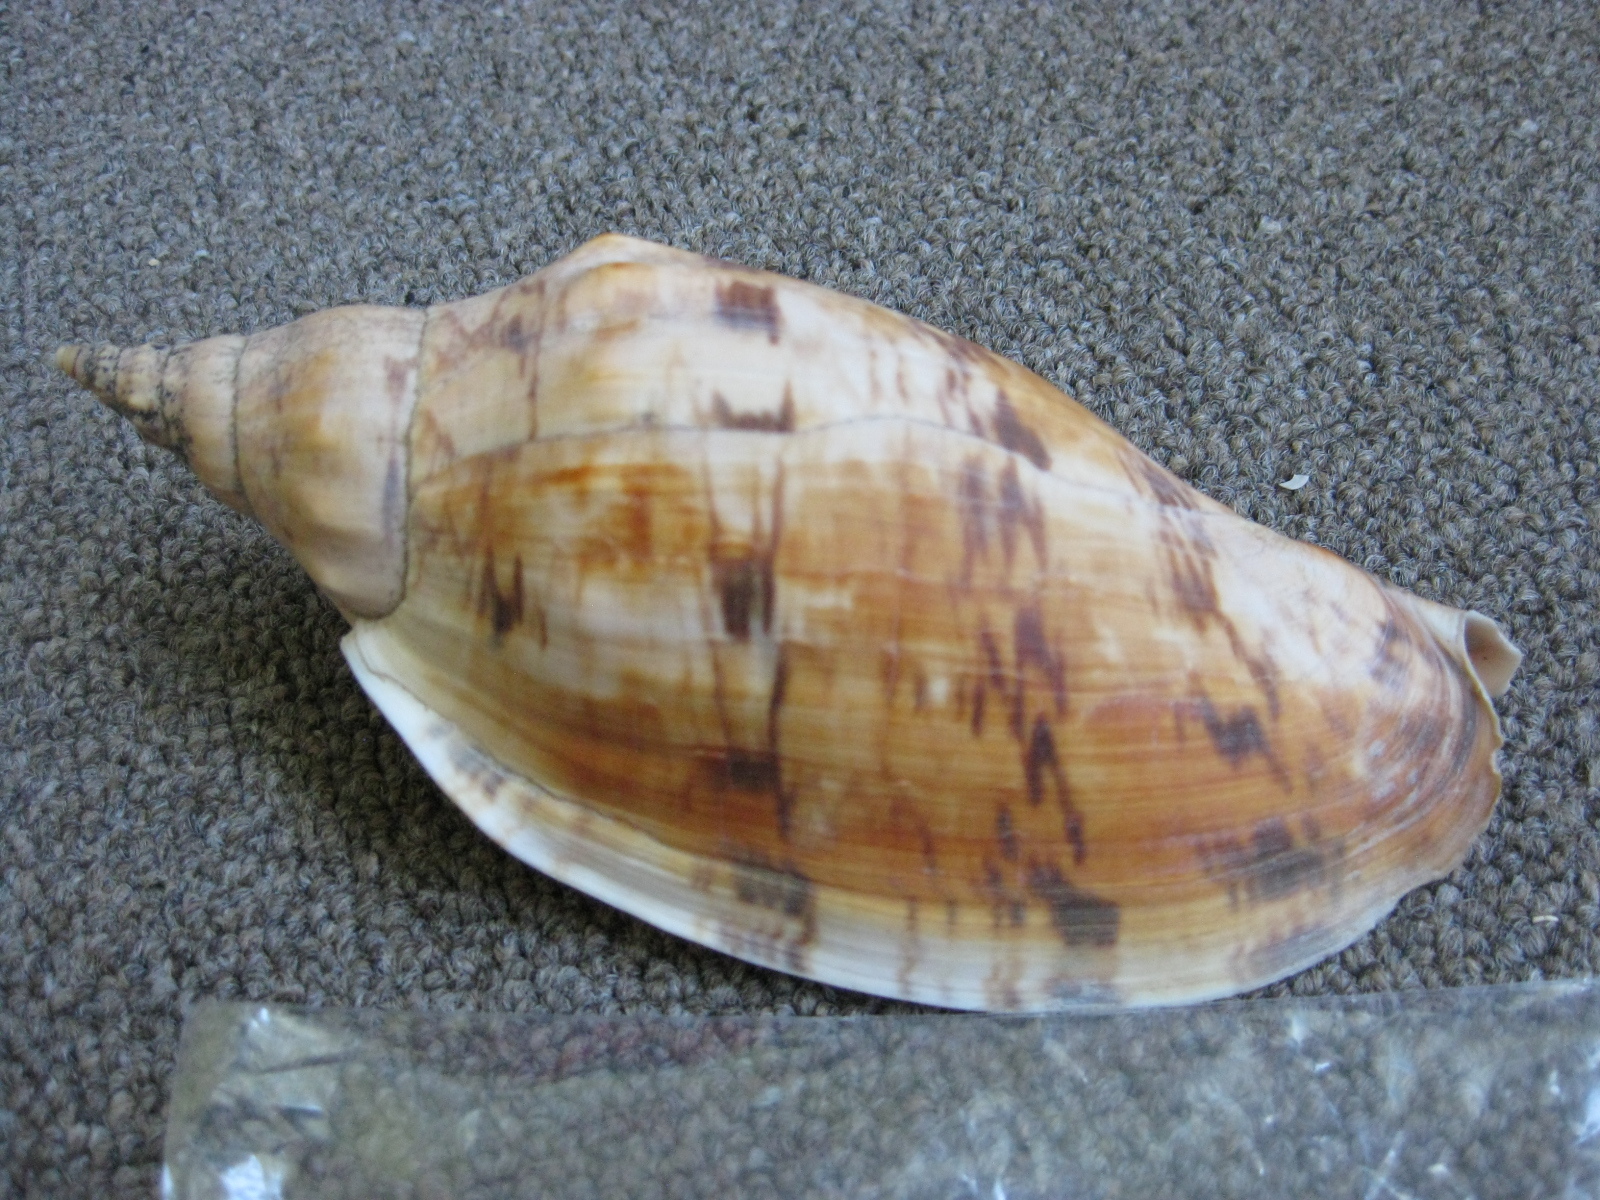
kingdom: Animalia
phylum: Mollusca
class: Gastropoda
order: Neogastropoda
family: Volutidae
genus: Alcithoe
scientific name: Alcithoe arabica
